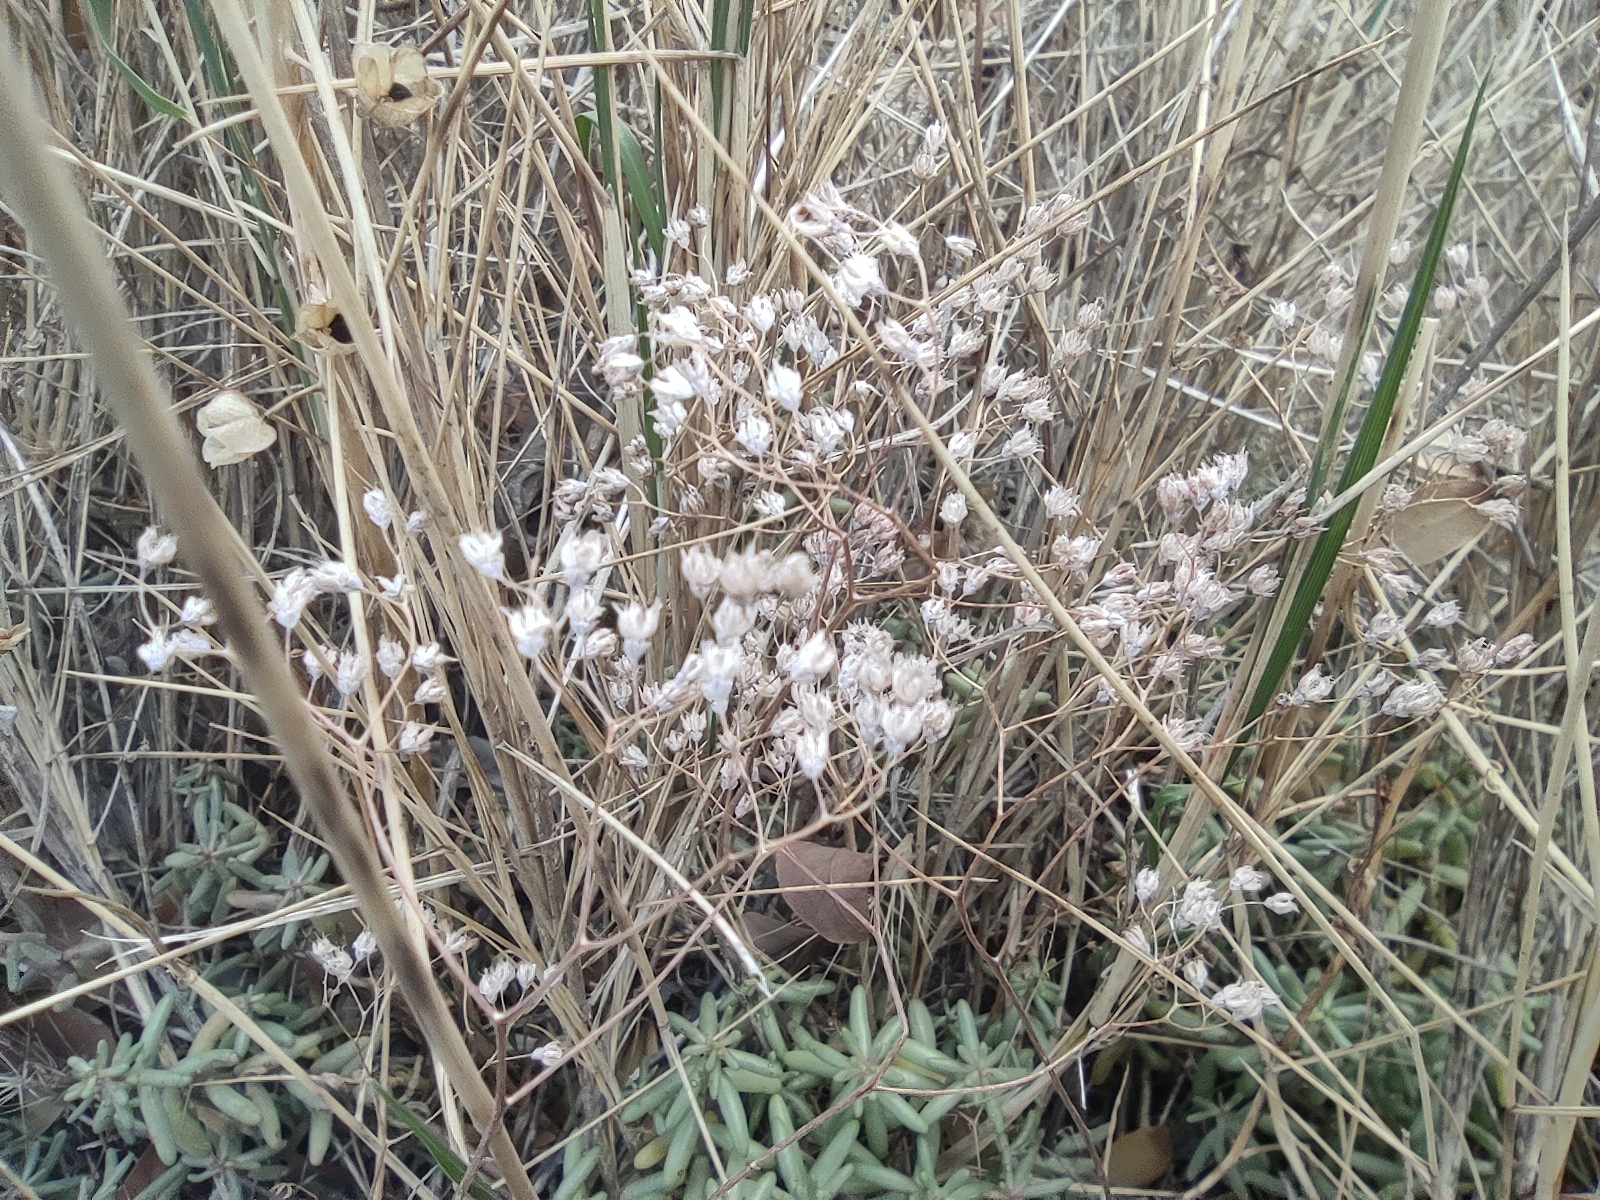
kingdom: Plantae
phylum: Tracheophyta
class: Magnoliopsida
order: Saxifragales
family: Crassulaceae
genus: Sedum
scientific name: Sedum album
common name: White stonecrop
